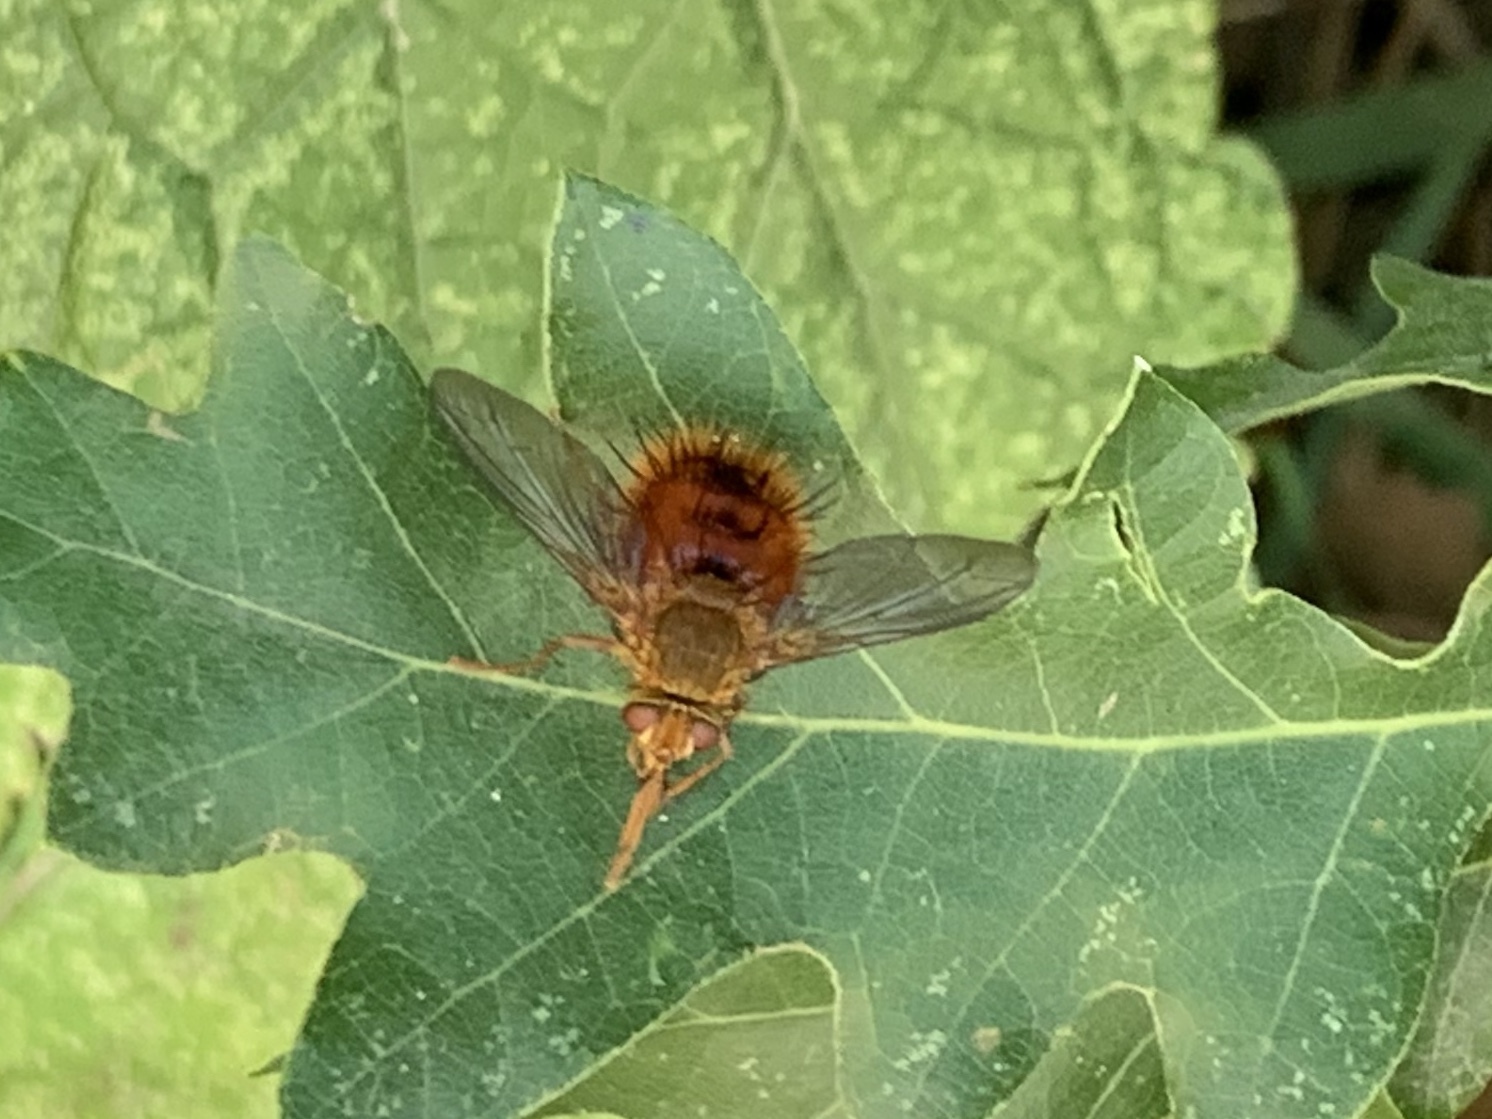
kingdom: Animalia
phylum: Arthropoda
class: Insecta
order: Diptera
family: Tachinidae
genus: Adejeania
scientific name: Adejeania vexatrix
